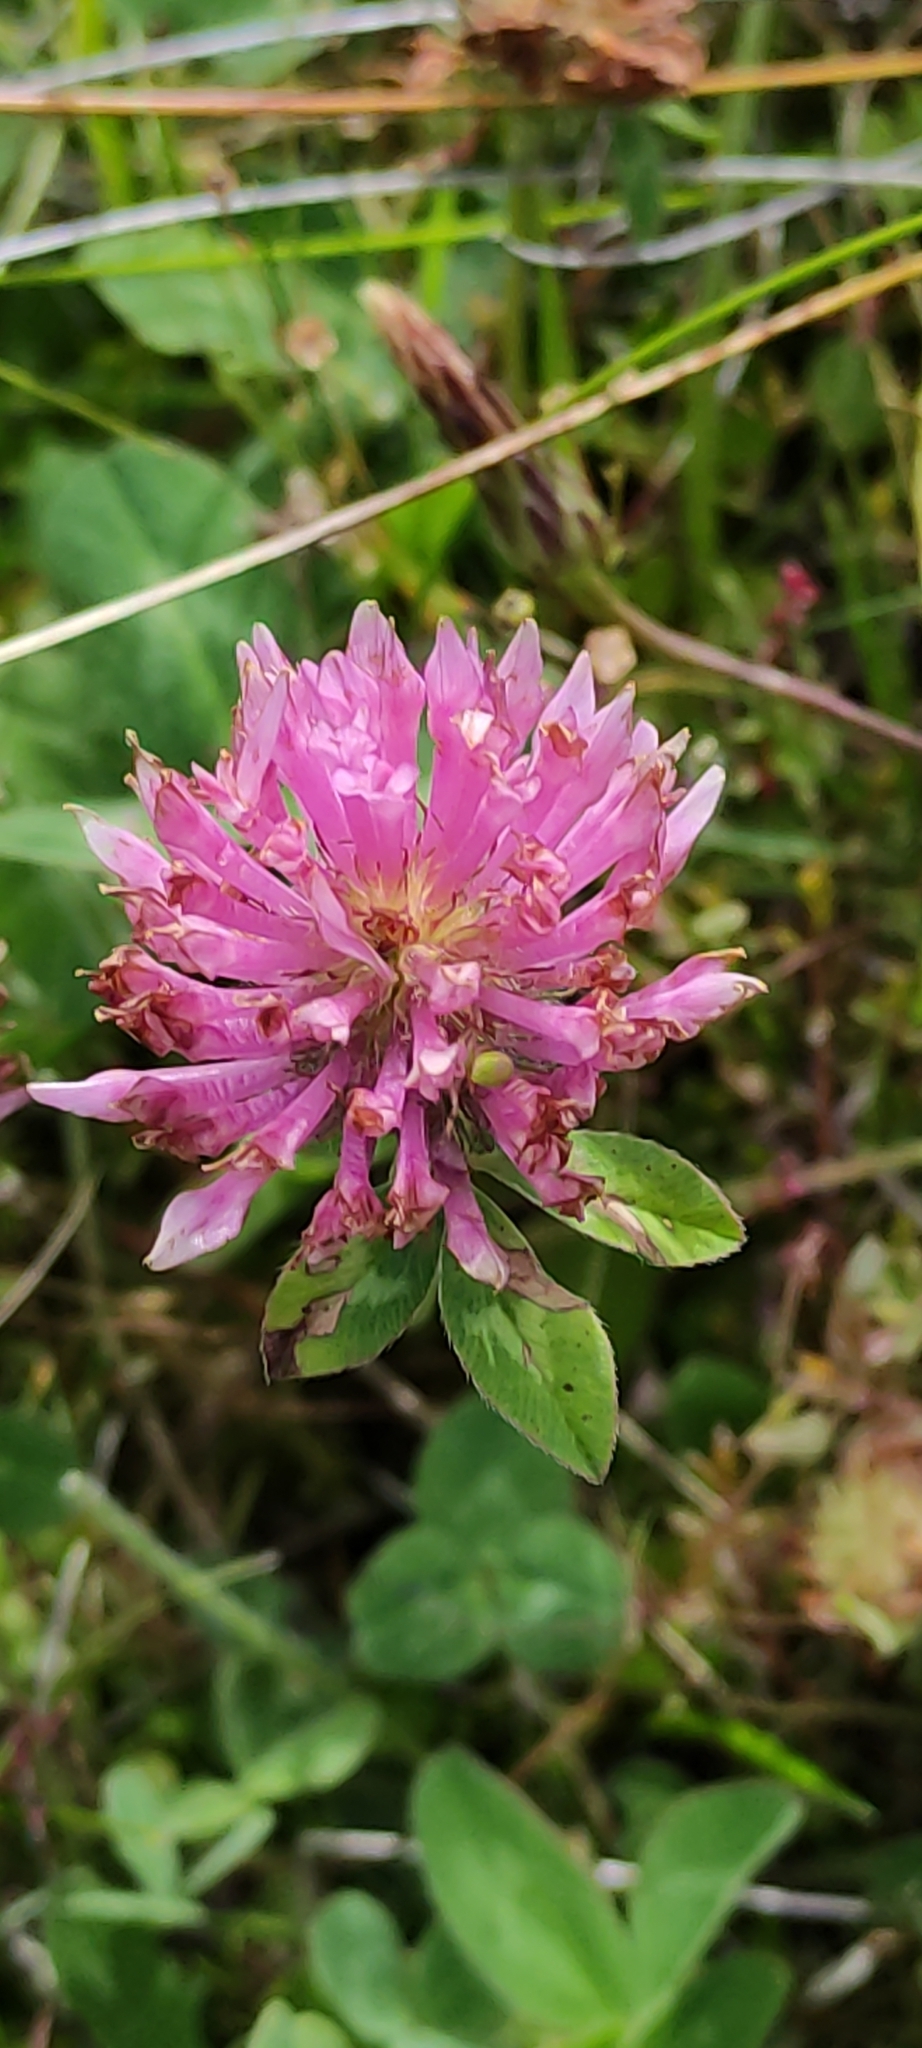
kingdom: Plantae
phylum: Tracheophyta
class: Magnoliopsida
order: Fabales
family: Fabaceae
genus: Trifolium
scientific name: Trifolium pratense
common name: Red clover
